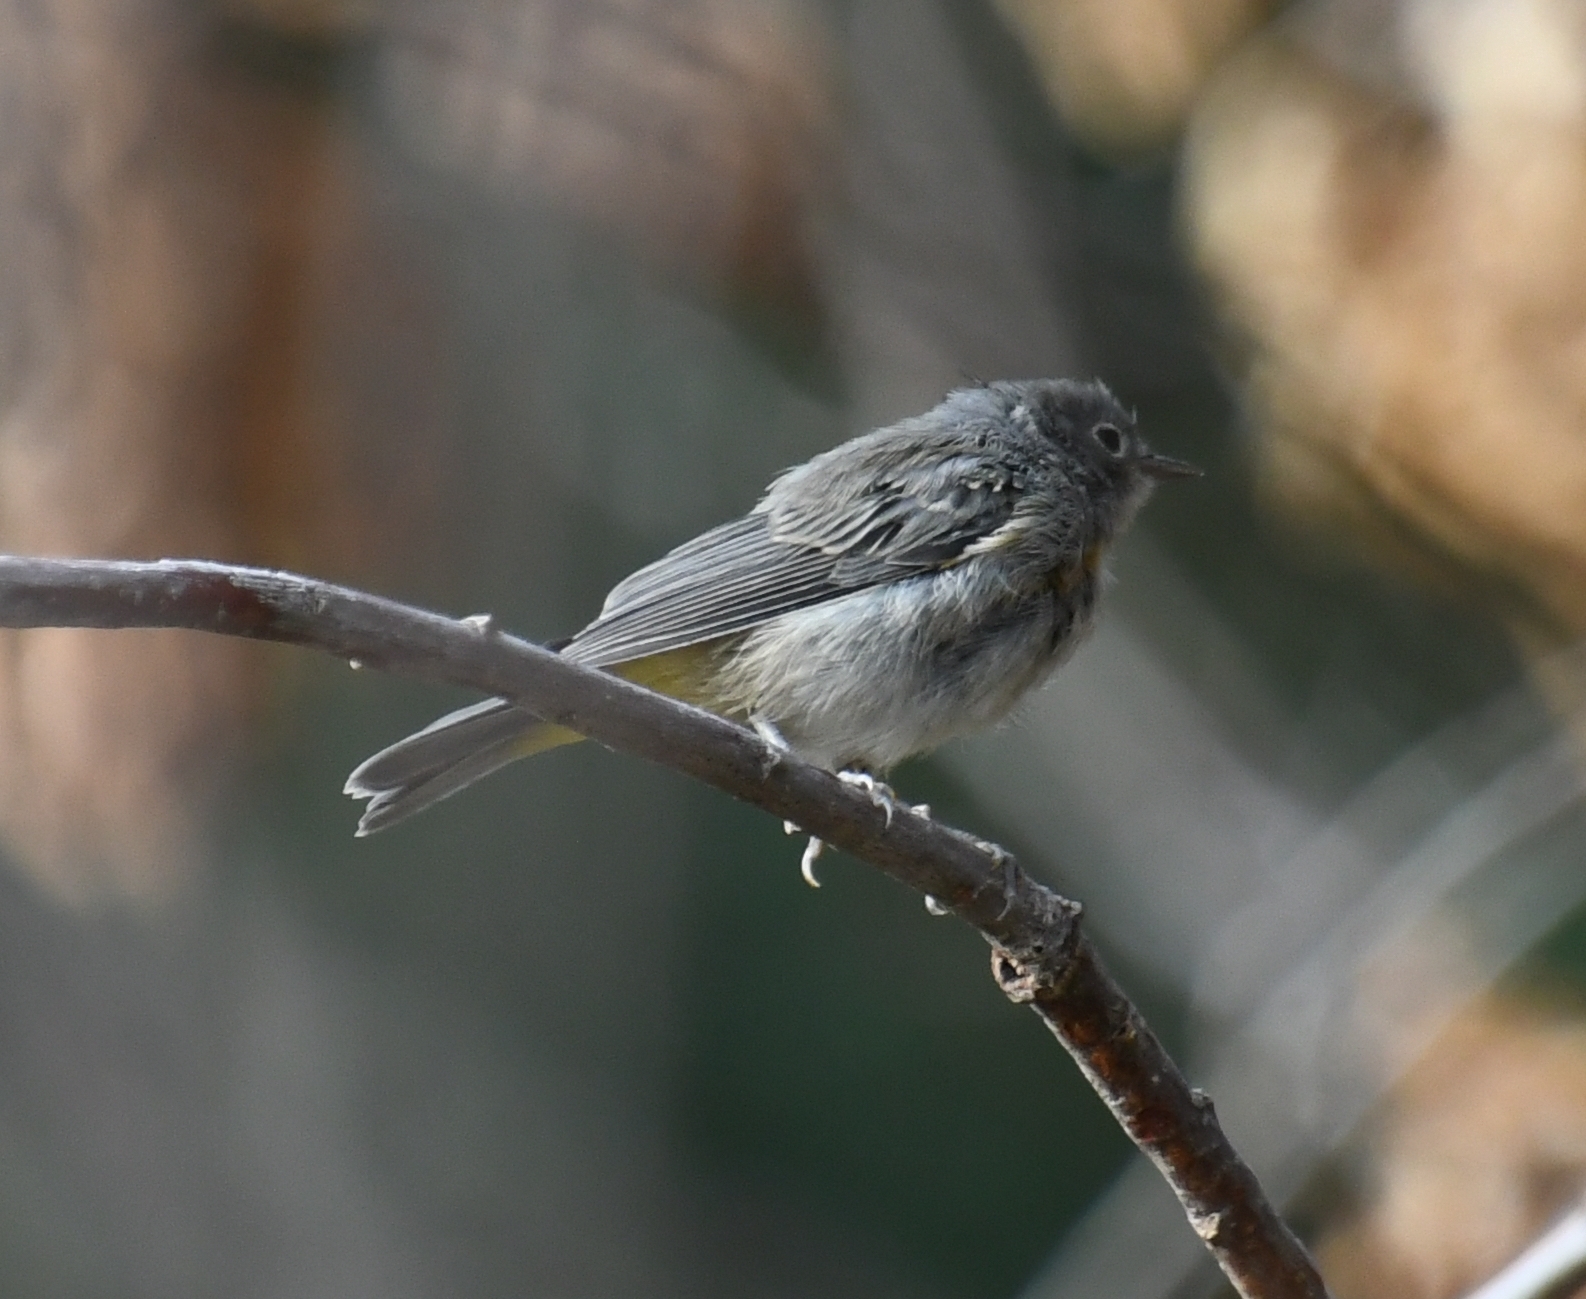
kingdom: Animalia
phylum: Chordata
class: Aves
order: Passeriformes
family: Parulidae
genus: Leiothlypis
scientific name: Leiothlypis virginiae
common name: Virginia's warbler
